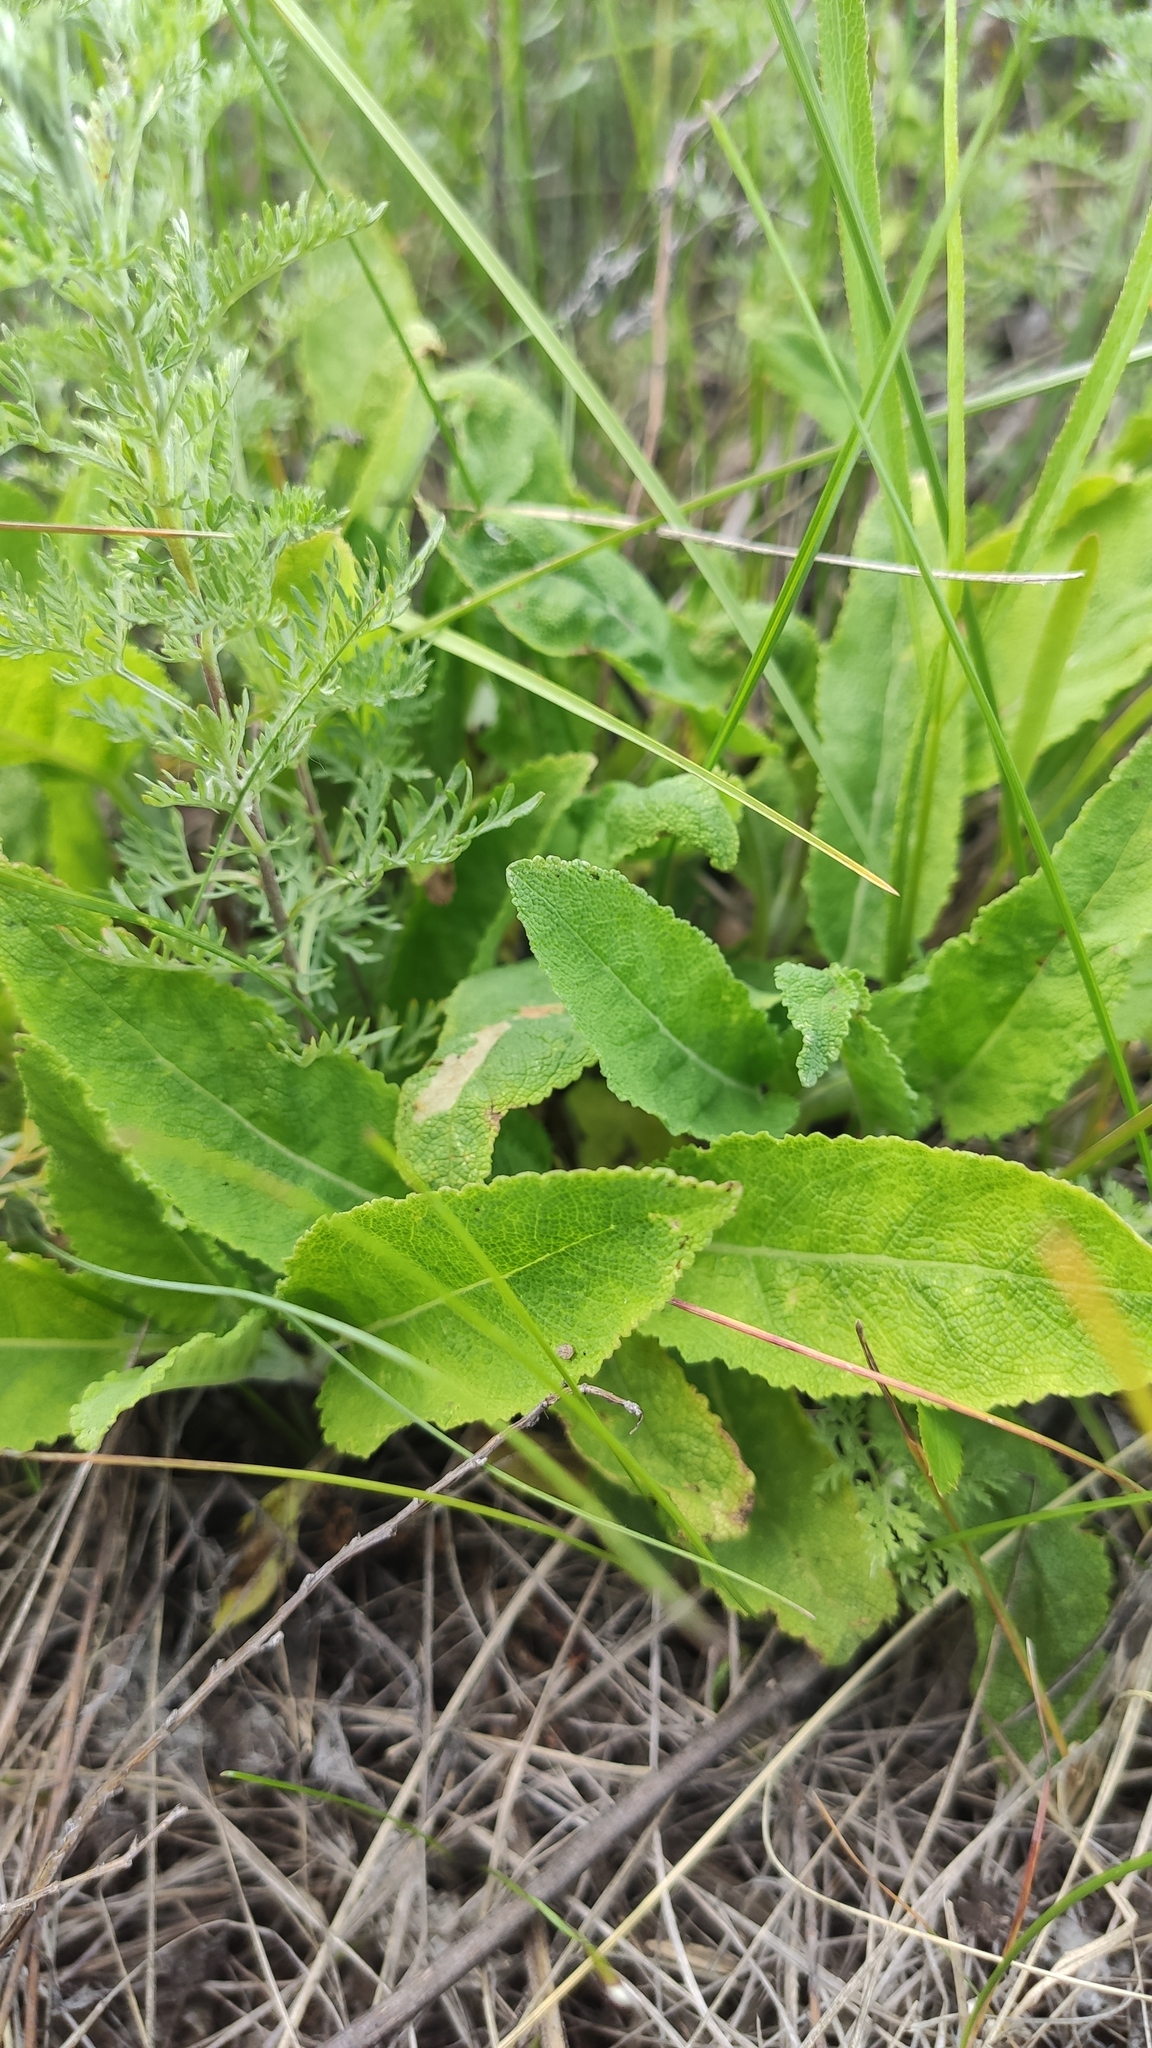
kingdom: Plantae
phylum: Tracheophyta
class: Magnoliopsida
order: Lamiales
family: Lamiaceae
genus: Salvia
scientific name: Salvia nemorosa
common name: Balkan clary
